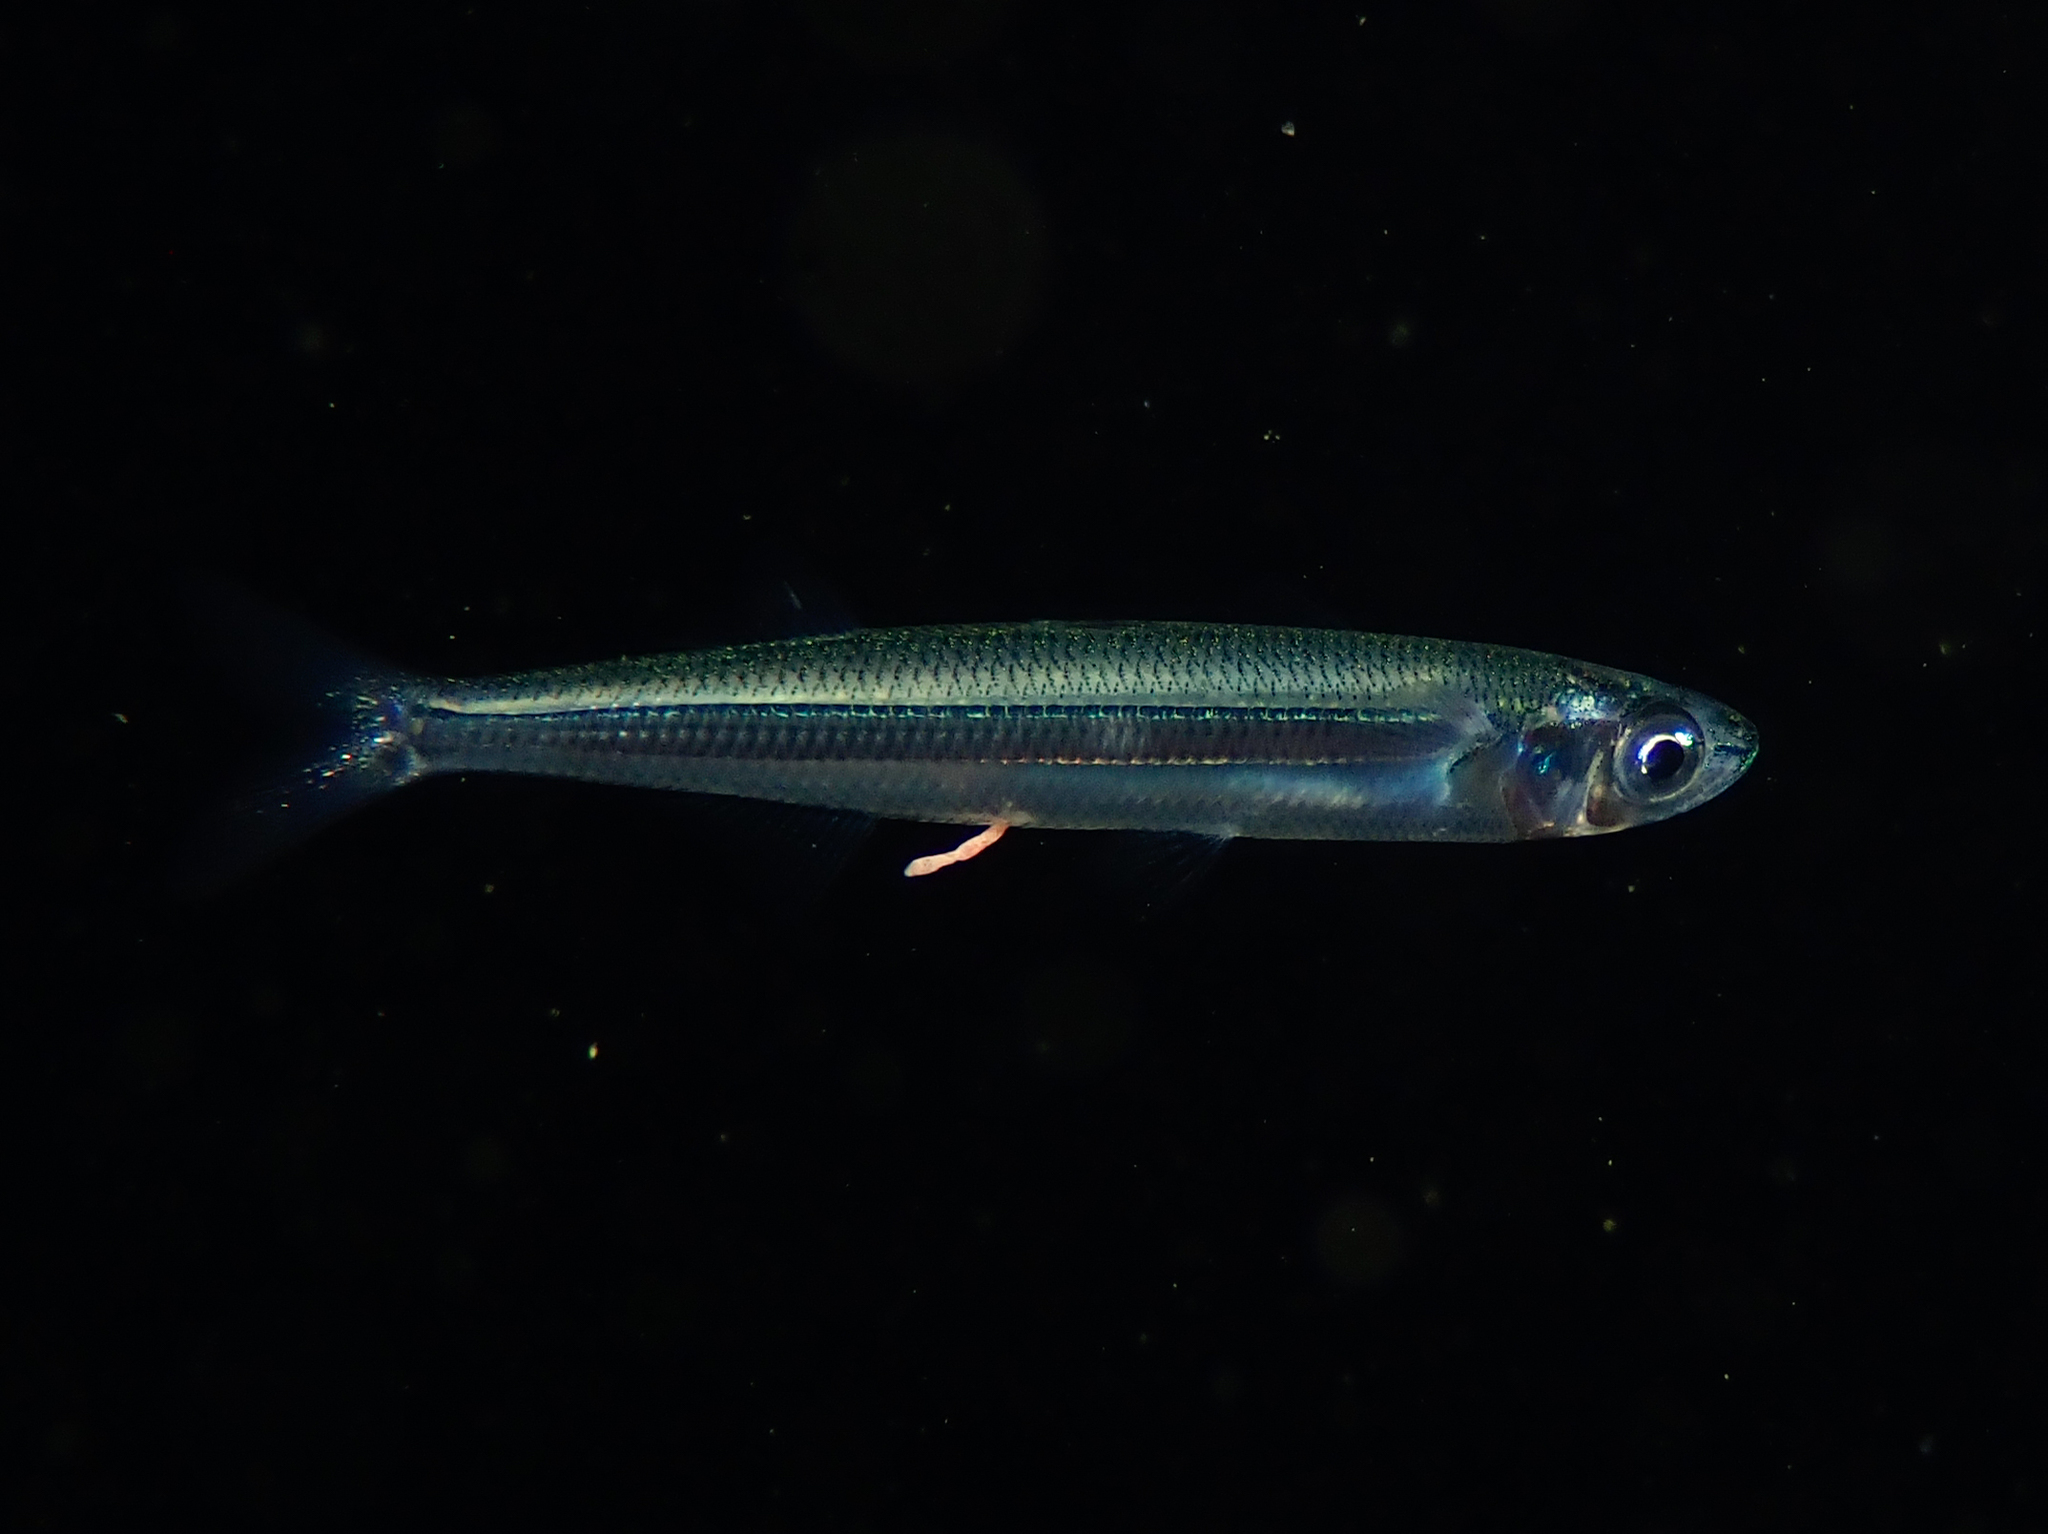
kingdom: Animalia
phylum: Chordata
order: Atheriniformes
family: Atherinidae
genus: Atherina
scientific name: Atherina hepsetus
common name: Mediterranean sand smelt
